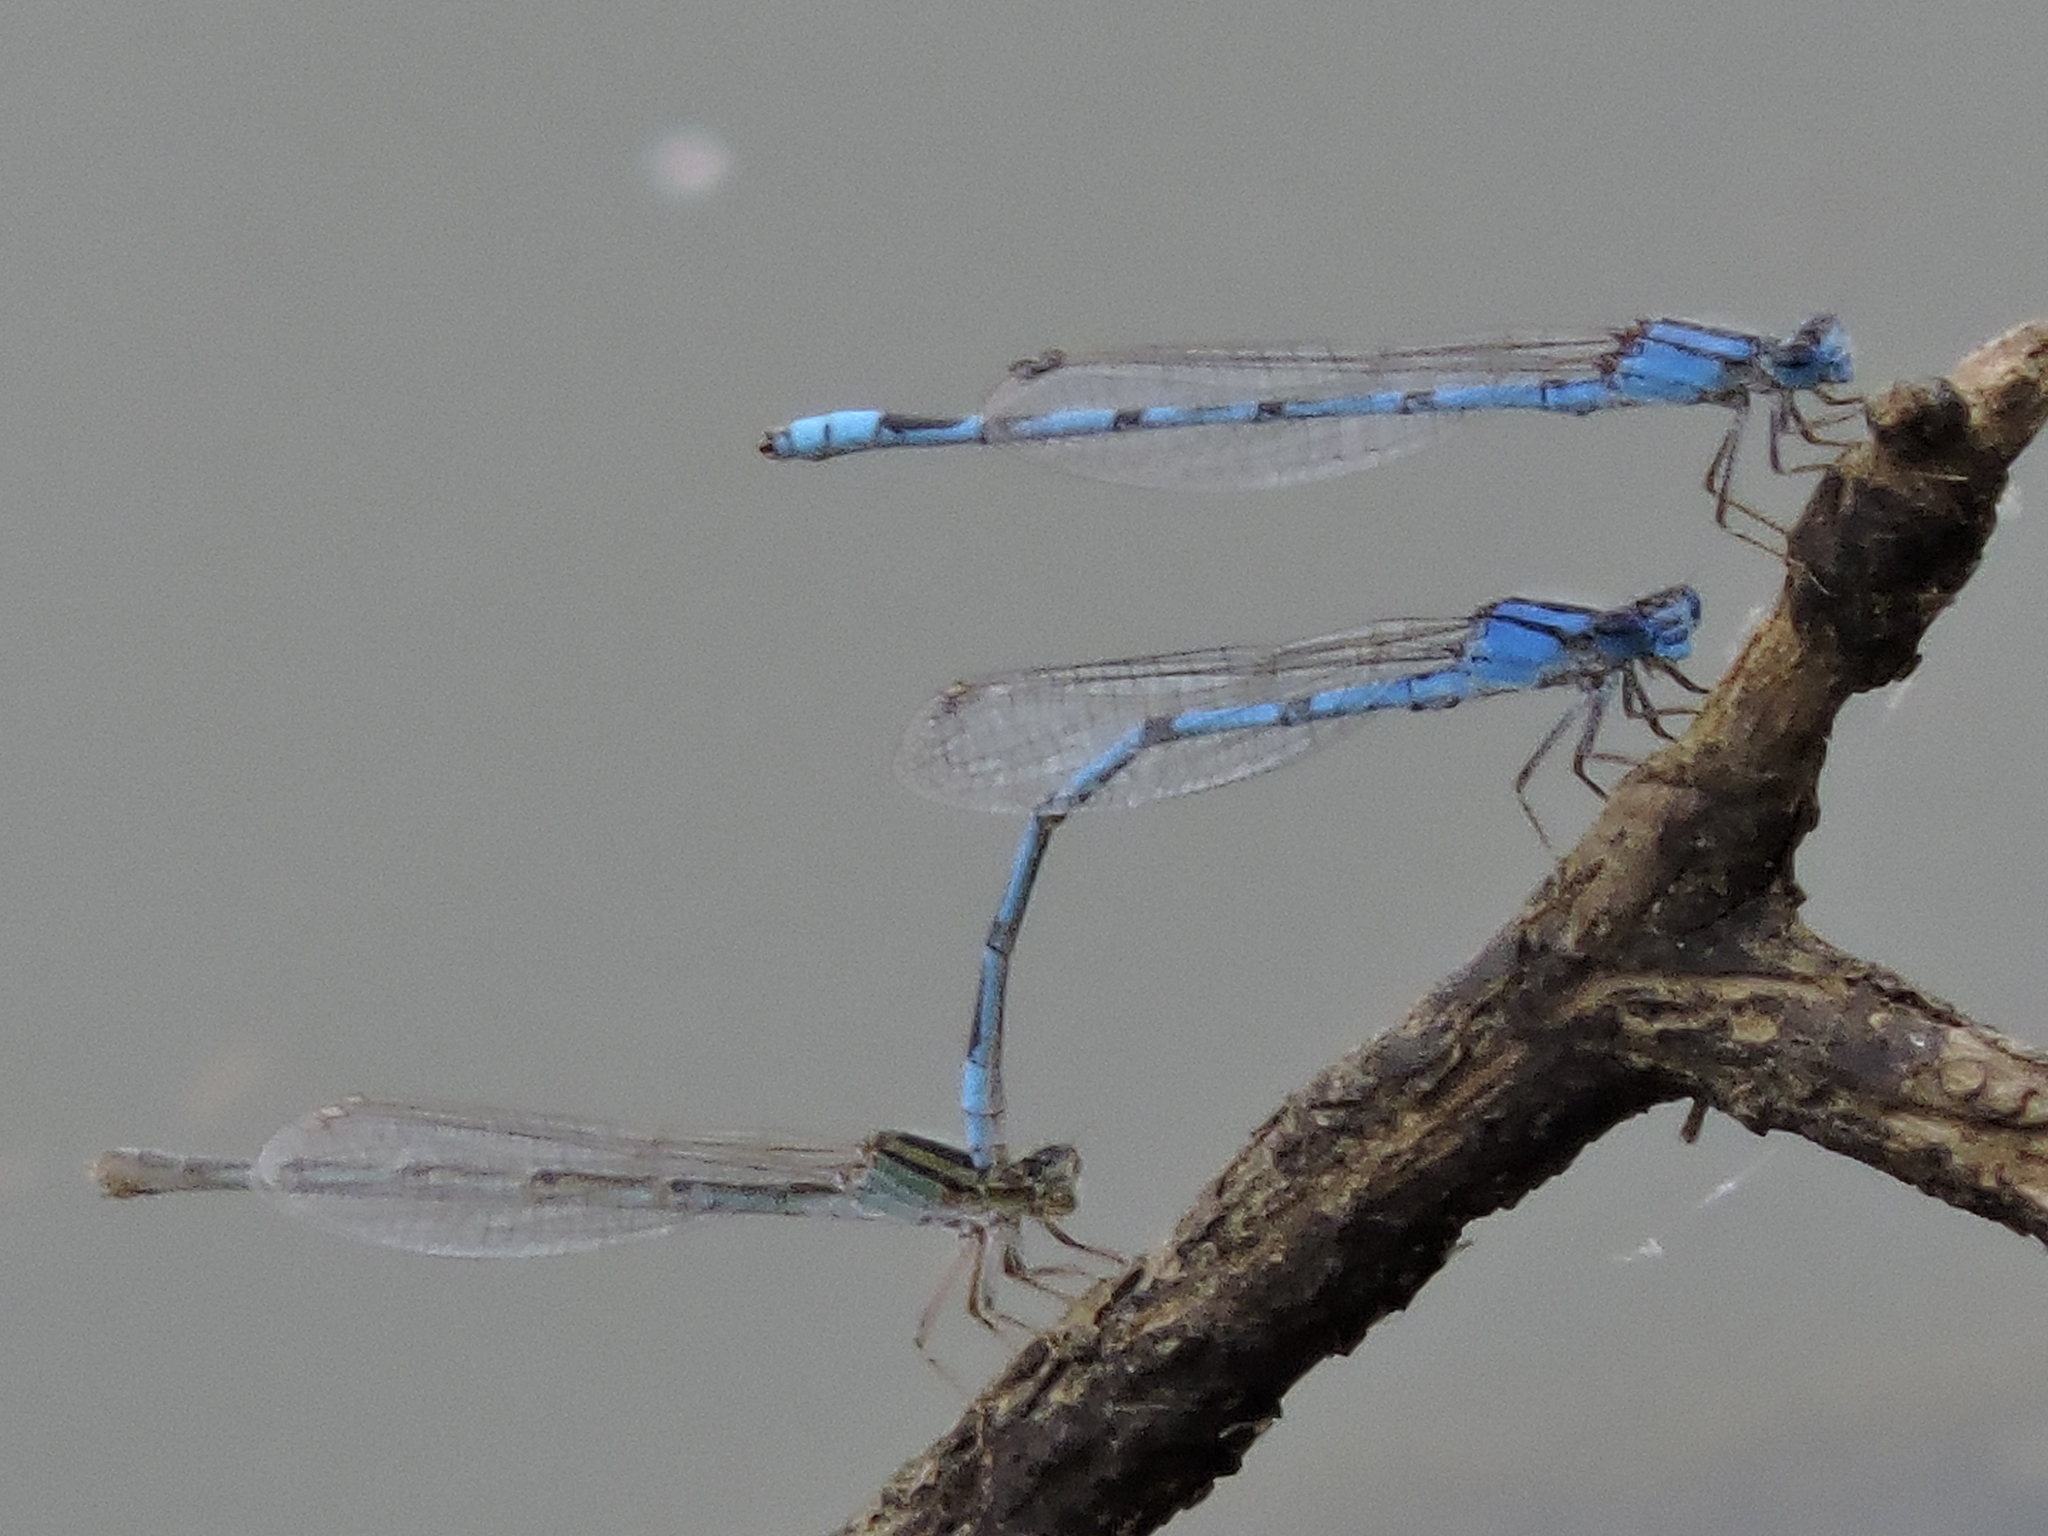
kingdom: Animalia
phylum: Arthropoda
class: Insecta
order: Odonata
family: Coenagrionidae
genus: Enallagma
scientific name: Enallagma civile
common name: Damselfly
